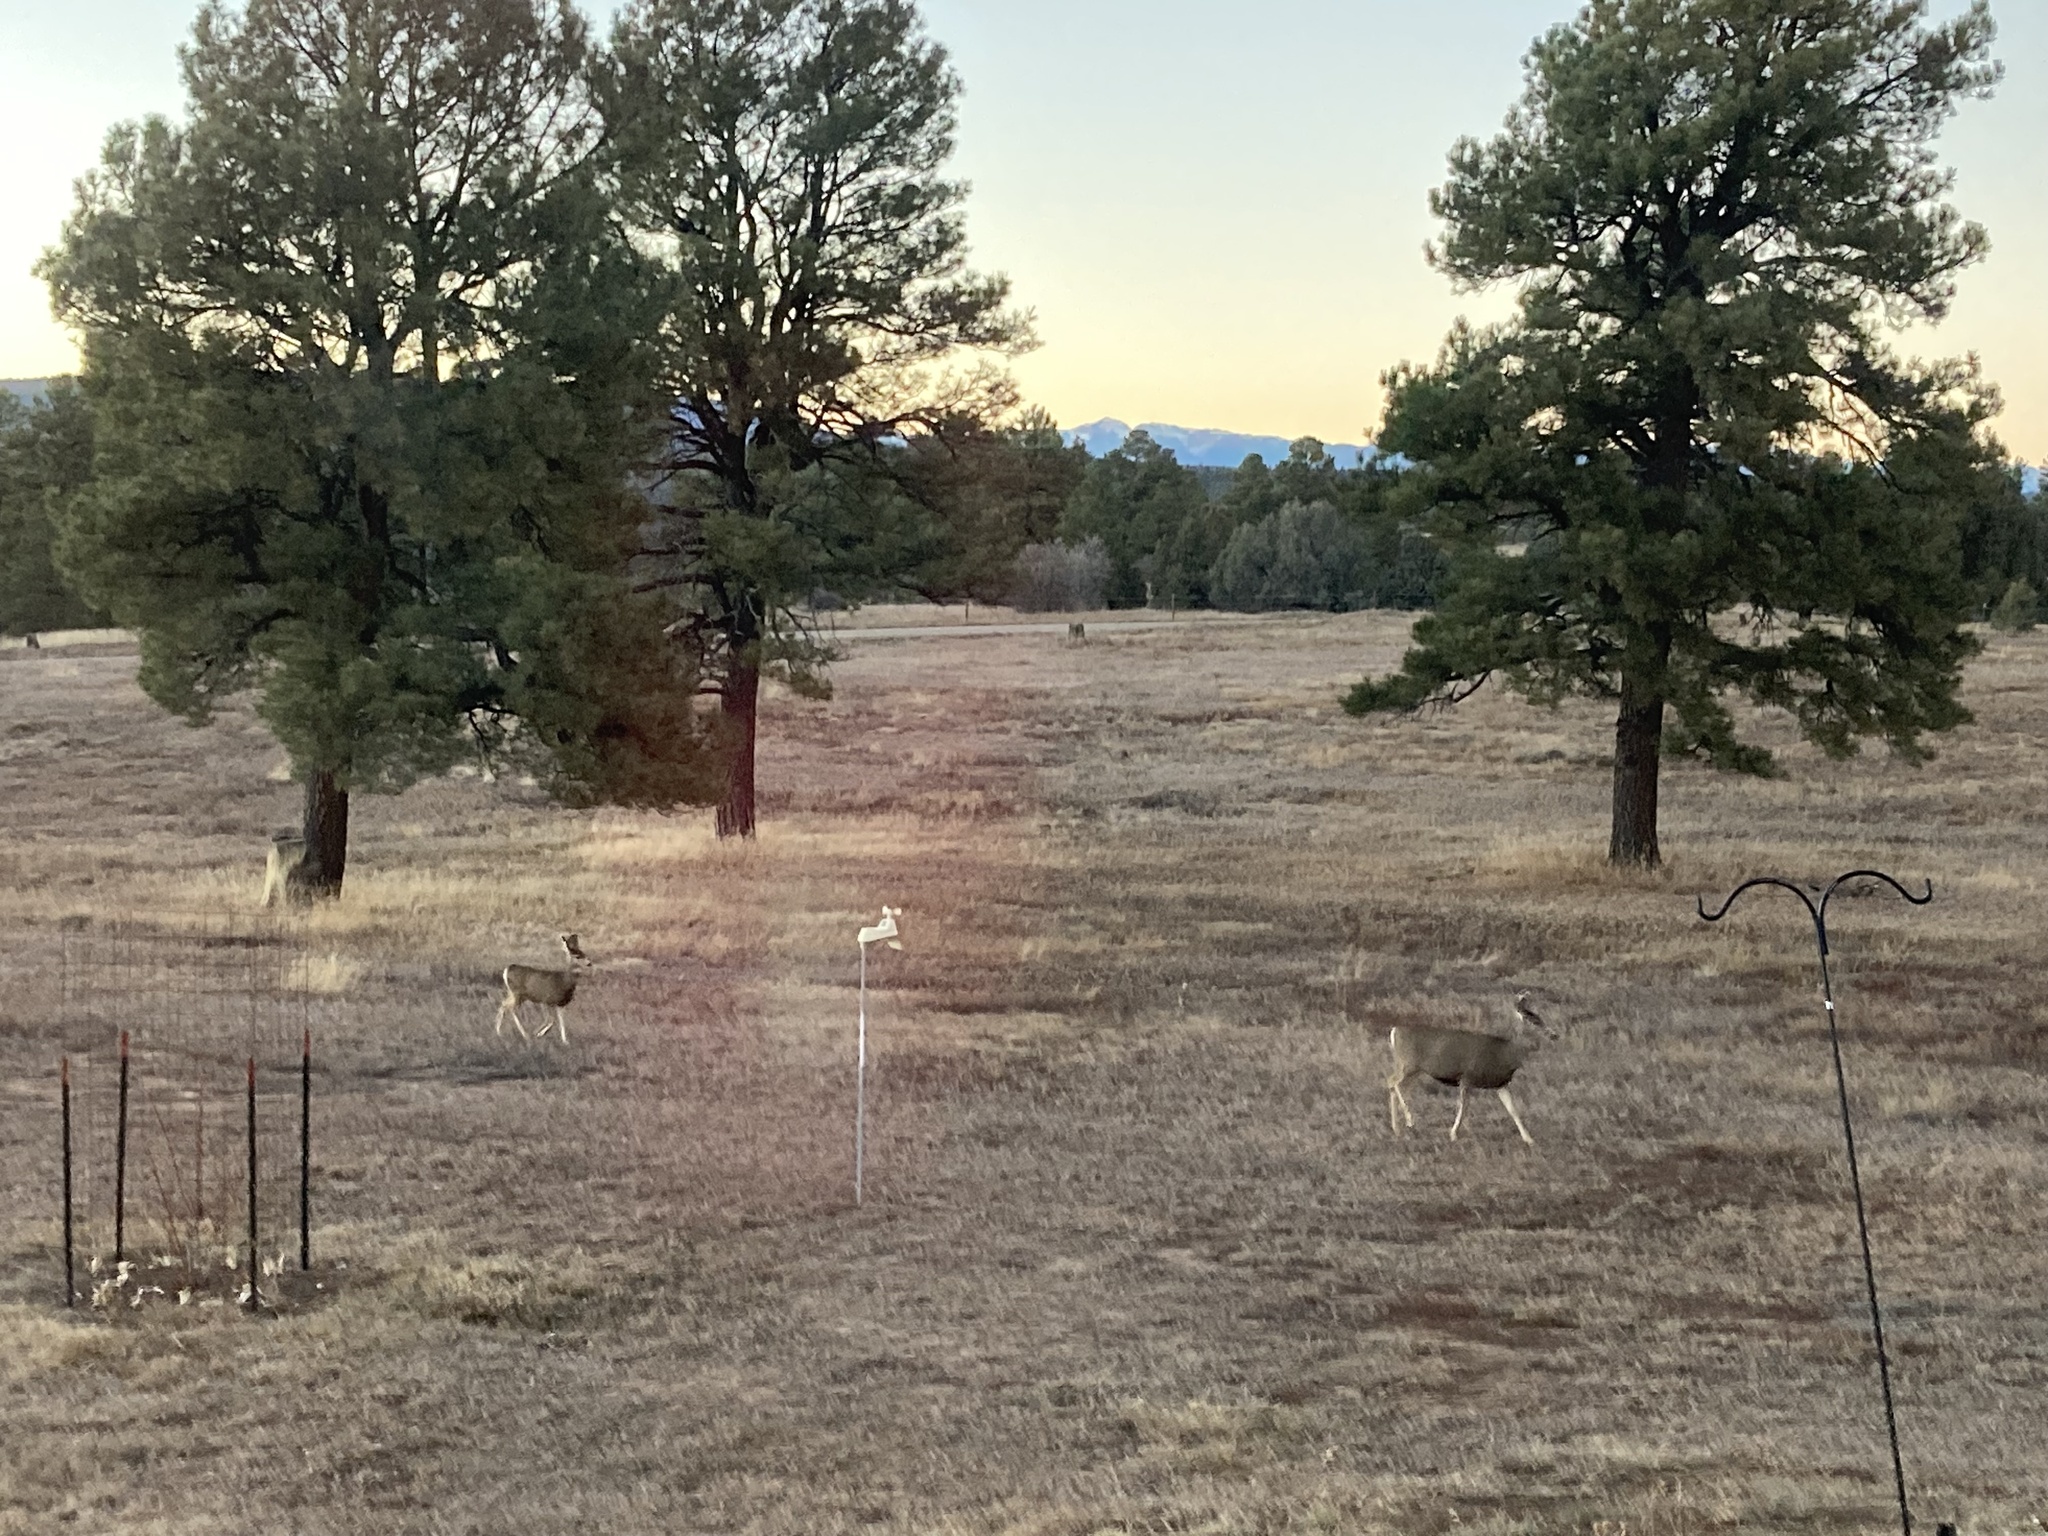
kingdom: Animalia
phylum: Chordata
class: Mammalia
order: Artiodactyla
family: Cervidae
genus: Odocoileus
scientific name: Odocoileus hemionus
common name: Mule deer
